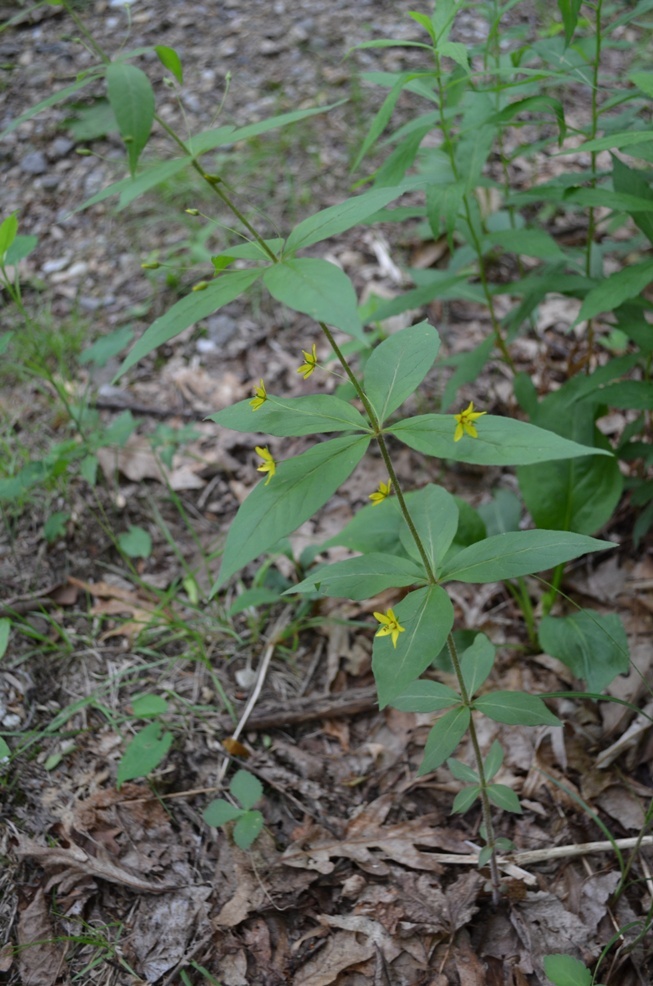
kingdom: Plantae
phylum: Tracheophyta
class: Magnoliopsida
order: Ericales
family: Primulaceae
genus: Lysimachia
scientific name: Lysimachia quadrifolia
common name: Whorled loosestrife
